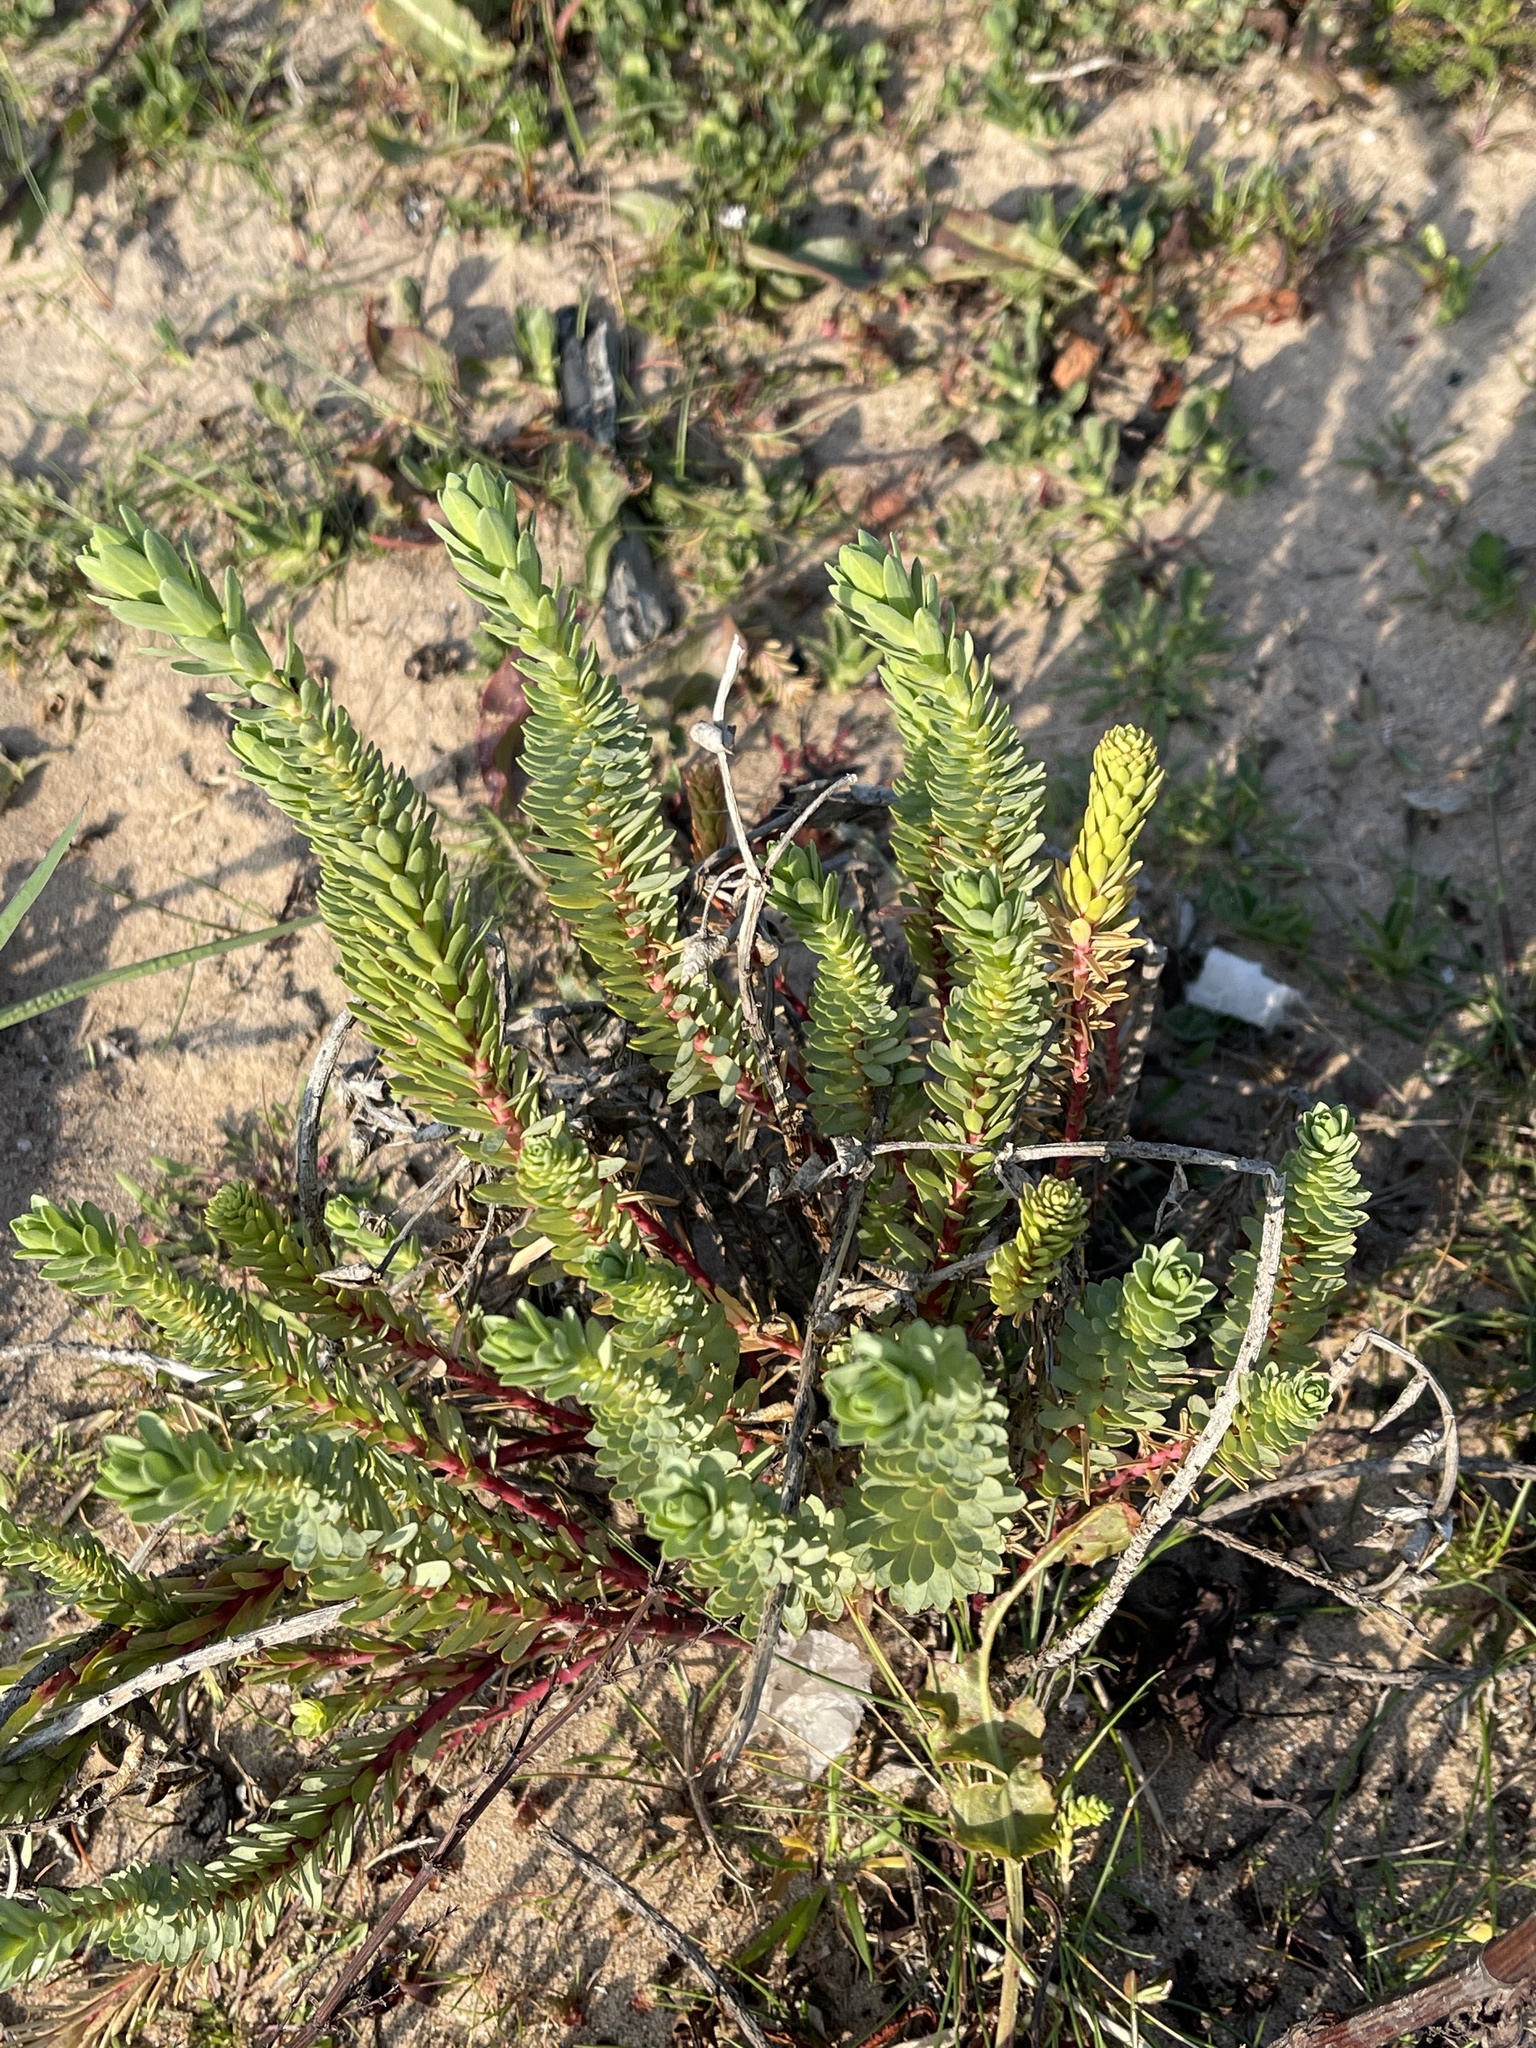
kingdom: Plantae
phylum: Tracheophyta
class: Magnoliopsida
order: Malpighiales
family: Euphorbiaceae
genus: Euphorbia
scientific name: Euphorbia paralias
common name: Sea spurge
